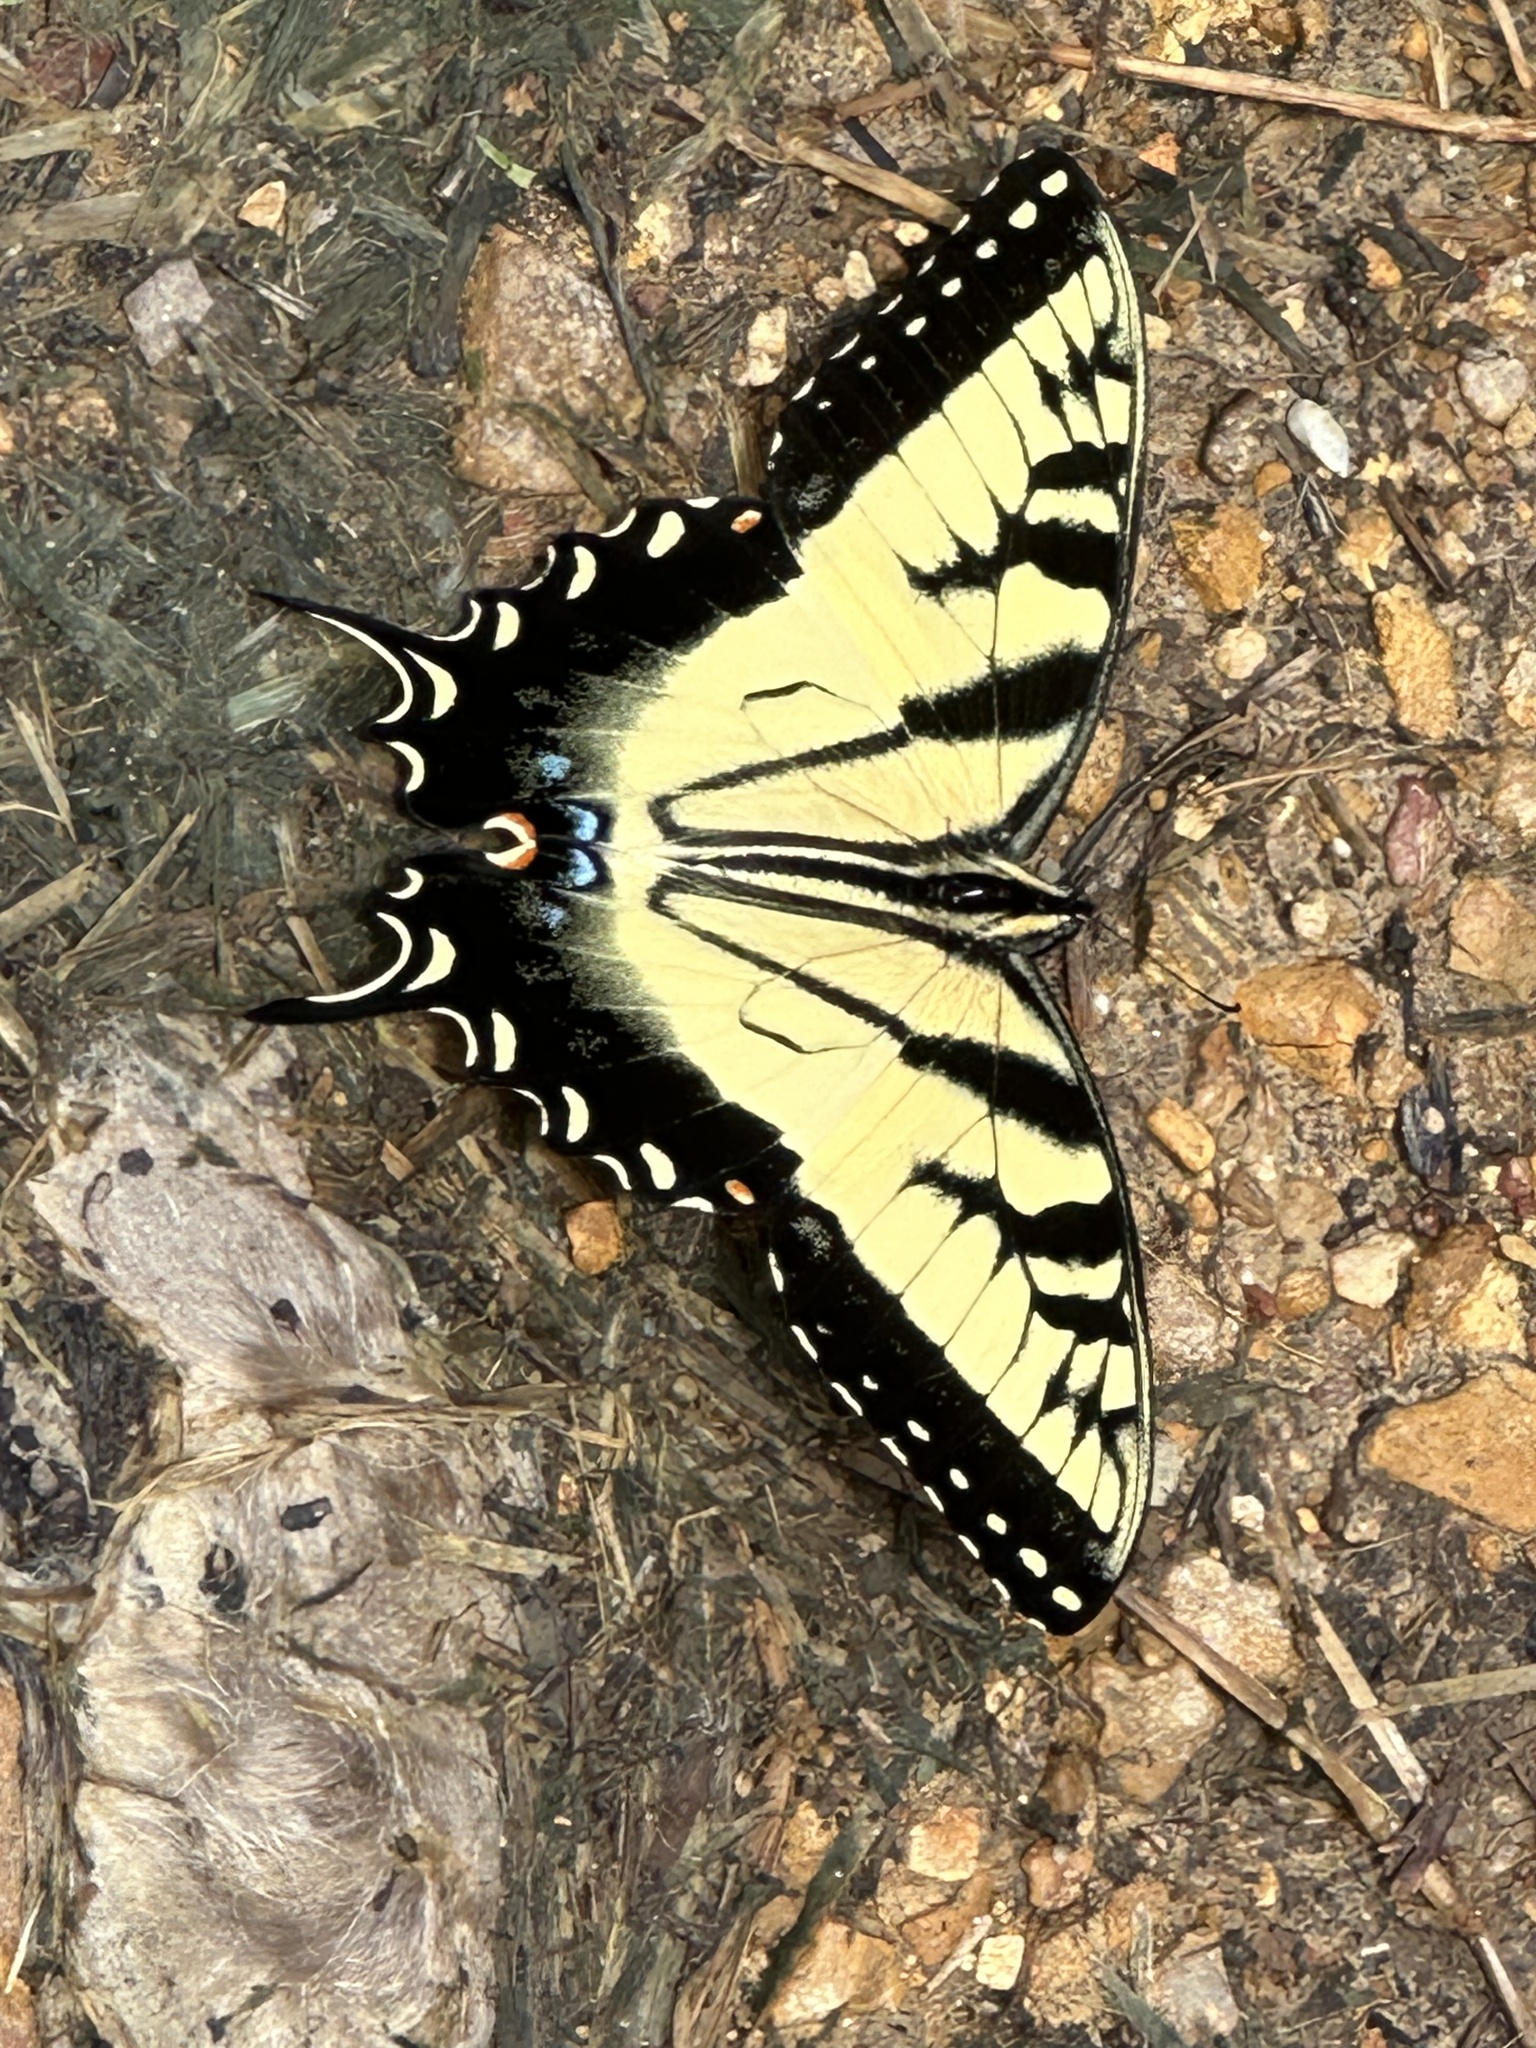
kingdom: Animalia
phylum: Arthropoda
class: Insecta
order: Lepidoptera
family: Papilionidae
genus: Papilio
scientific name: Papilio glaucus
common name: Tiger swallowtail
